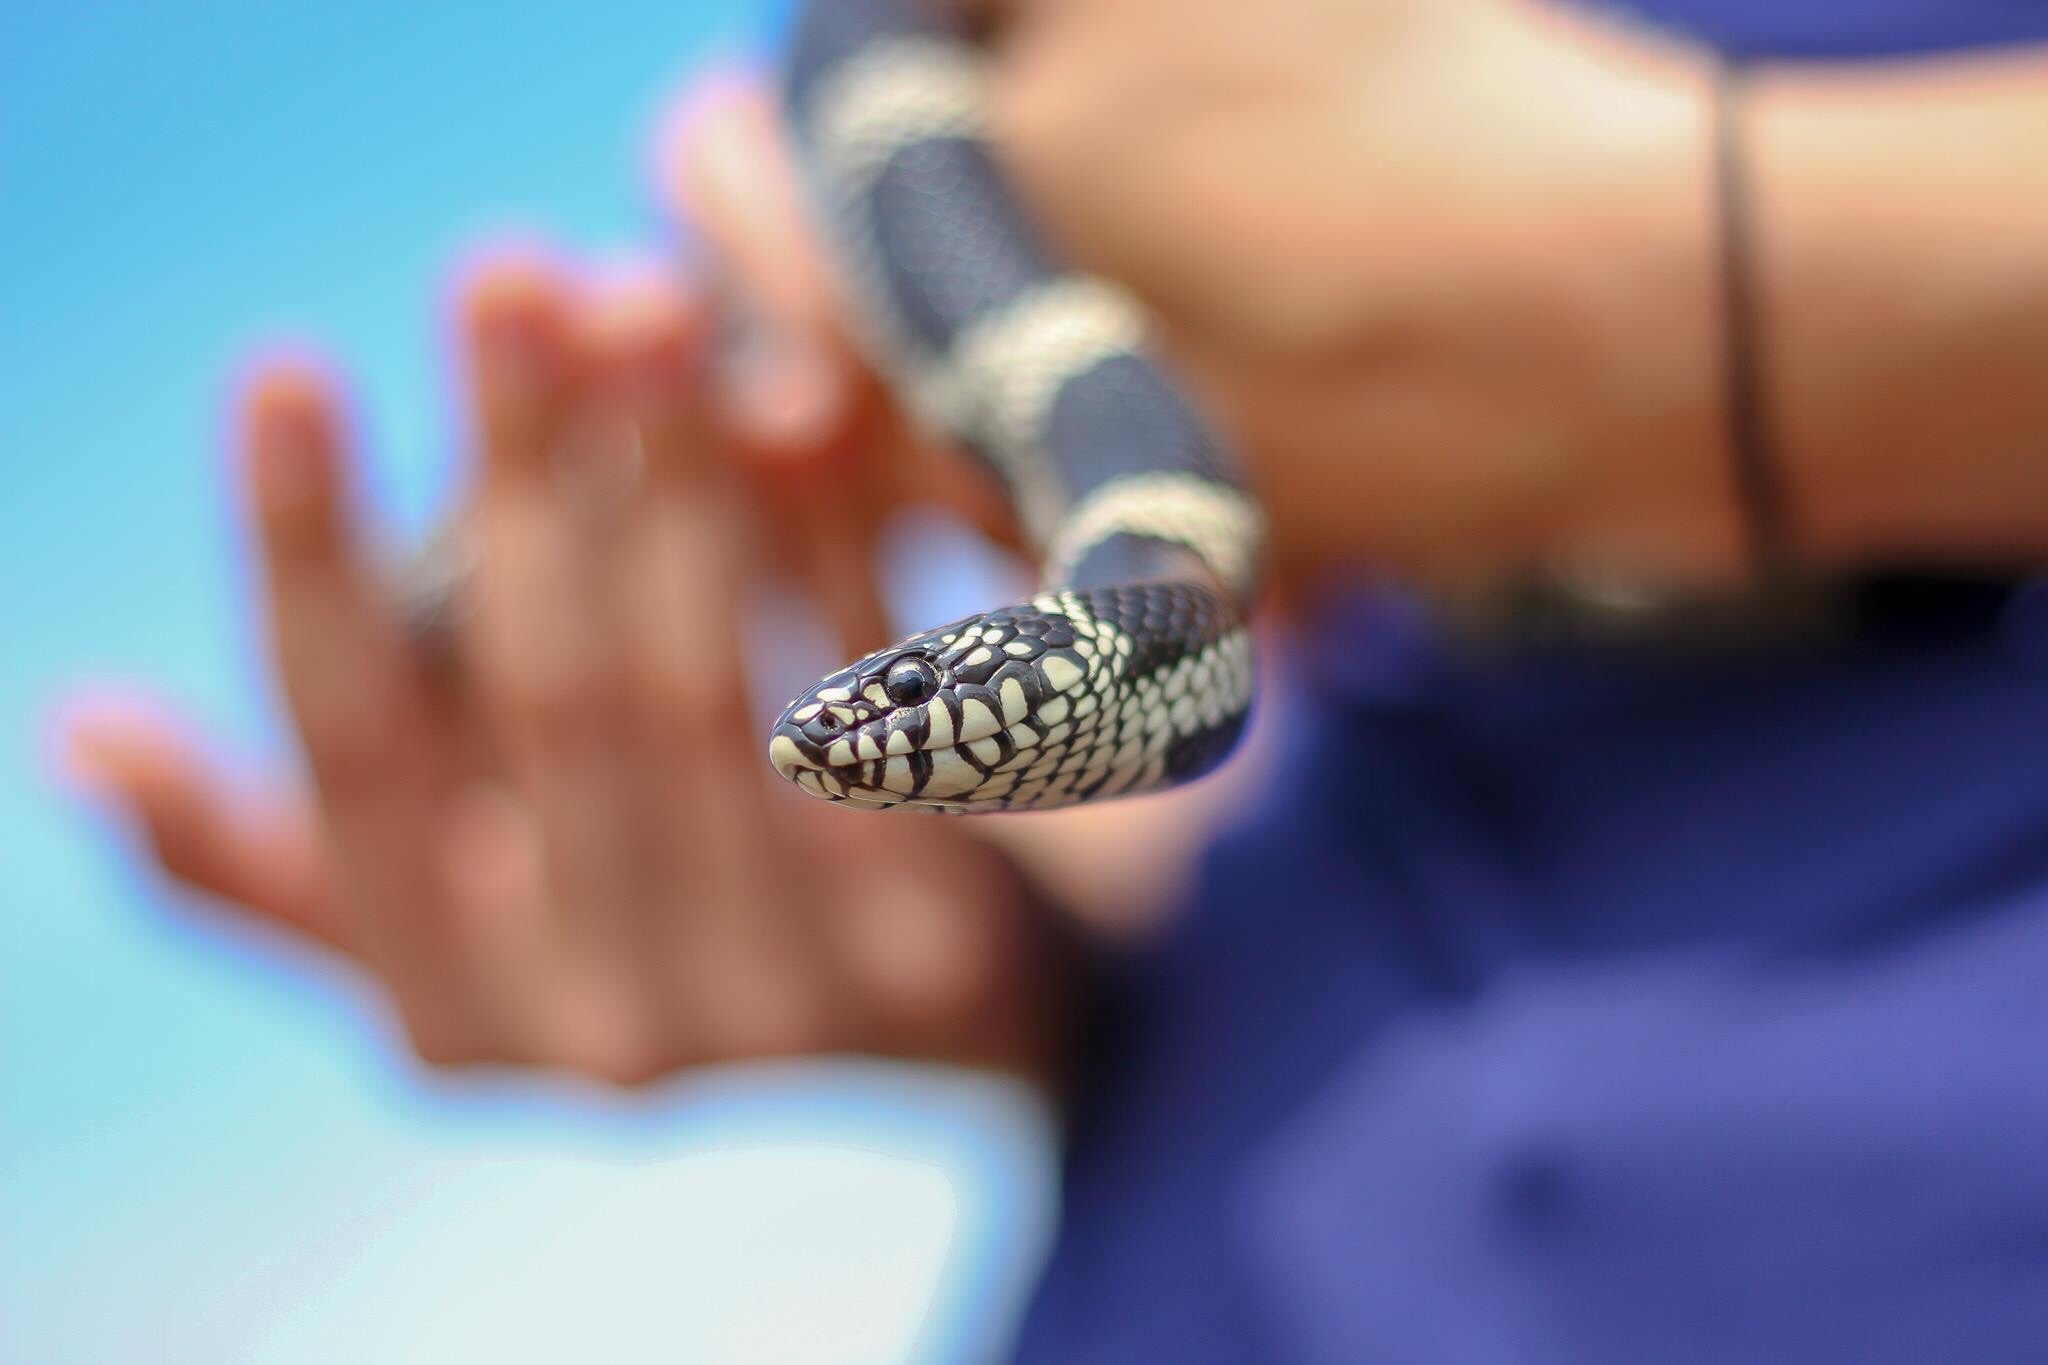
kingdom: Animalia
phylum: Chordata
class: Squamata
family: Colubridae
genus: Lampropeltis
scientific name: Lampropeltis getula
